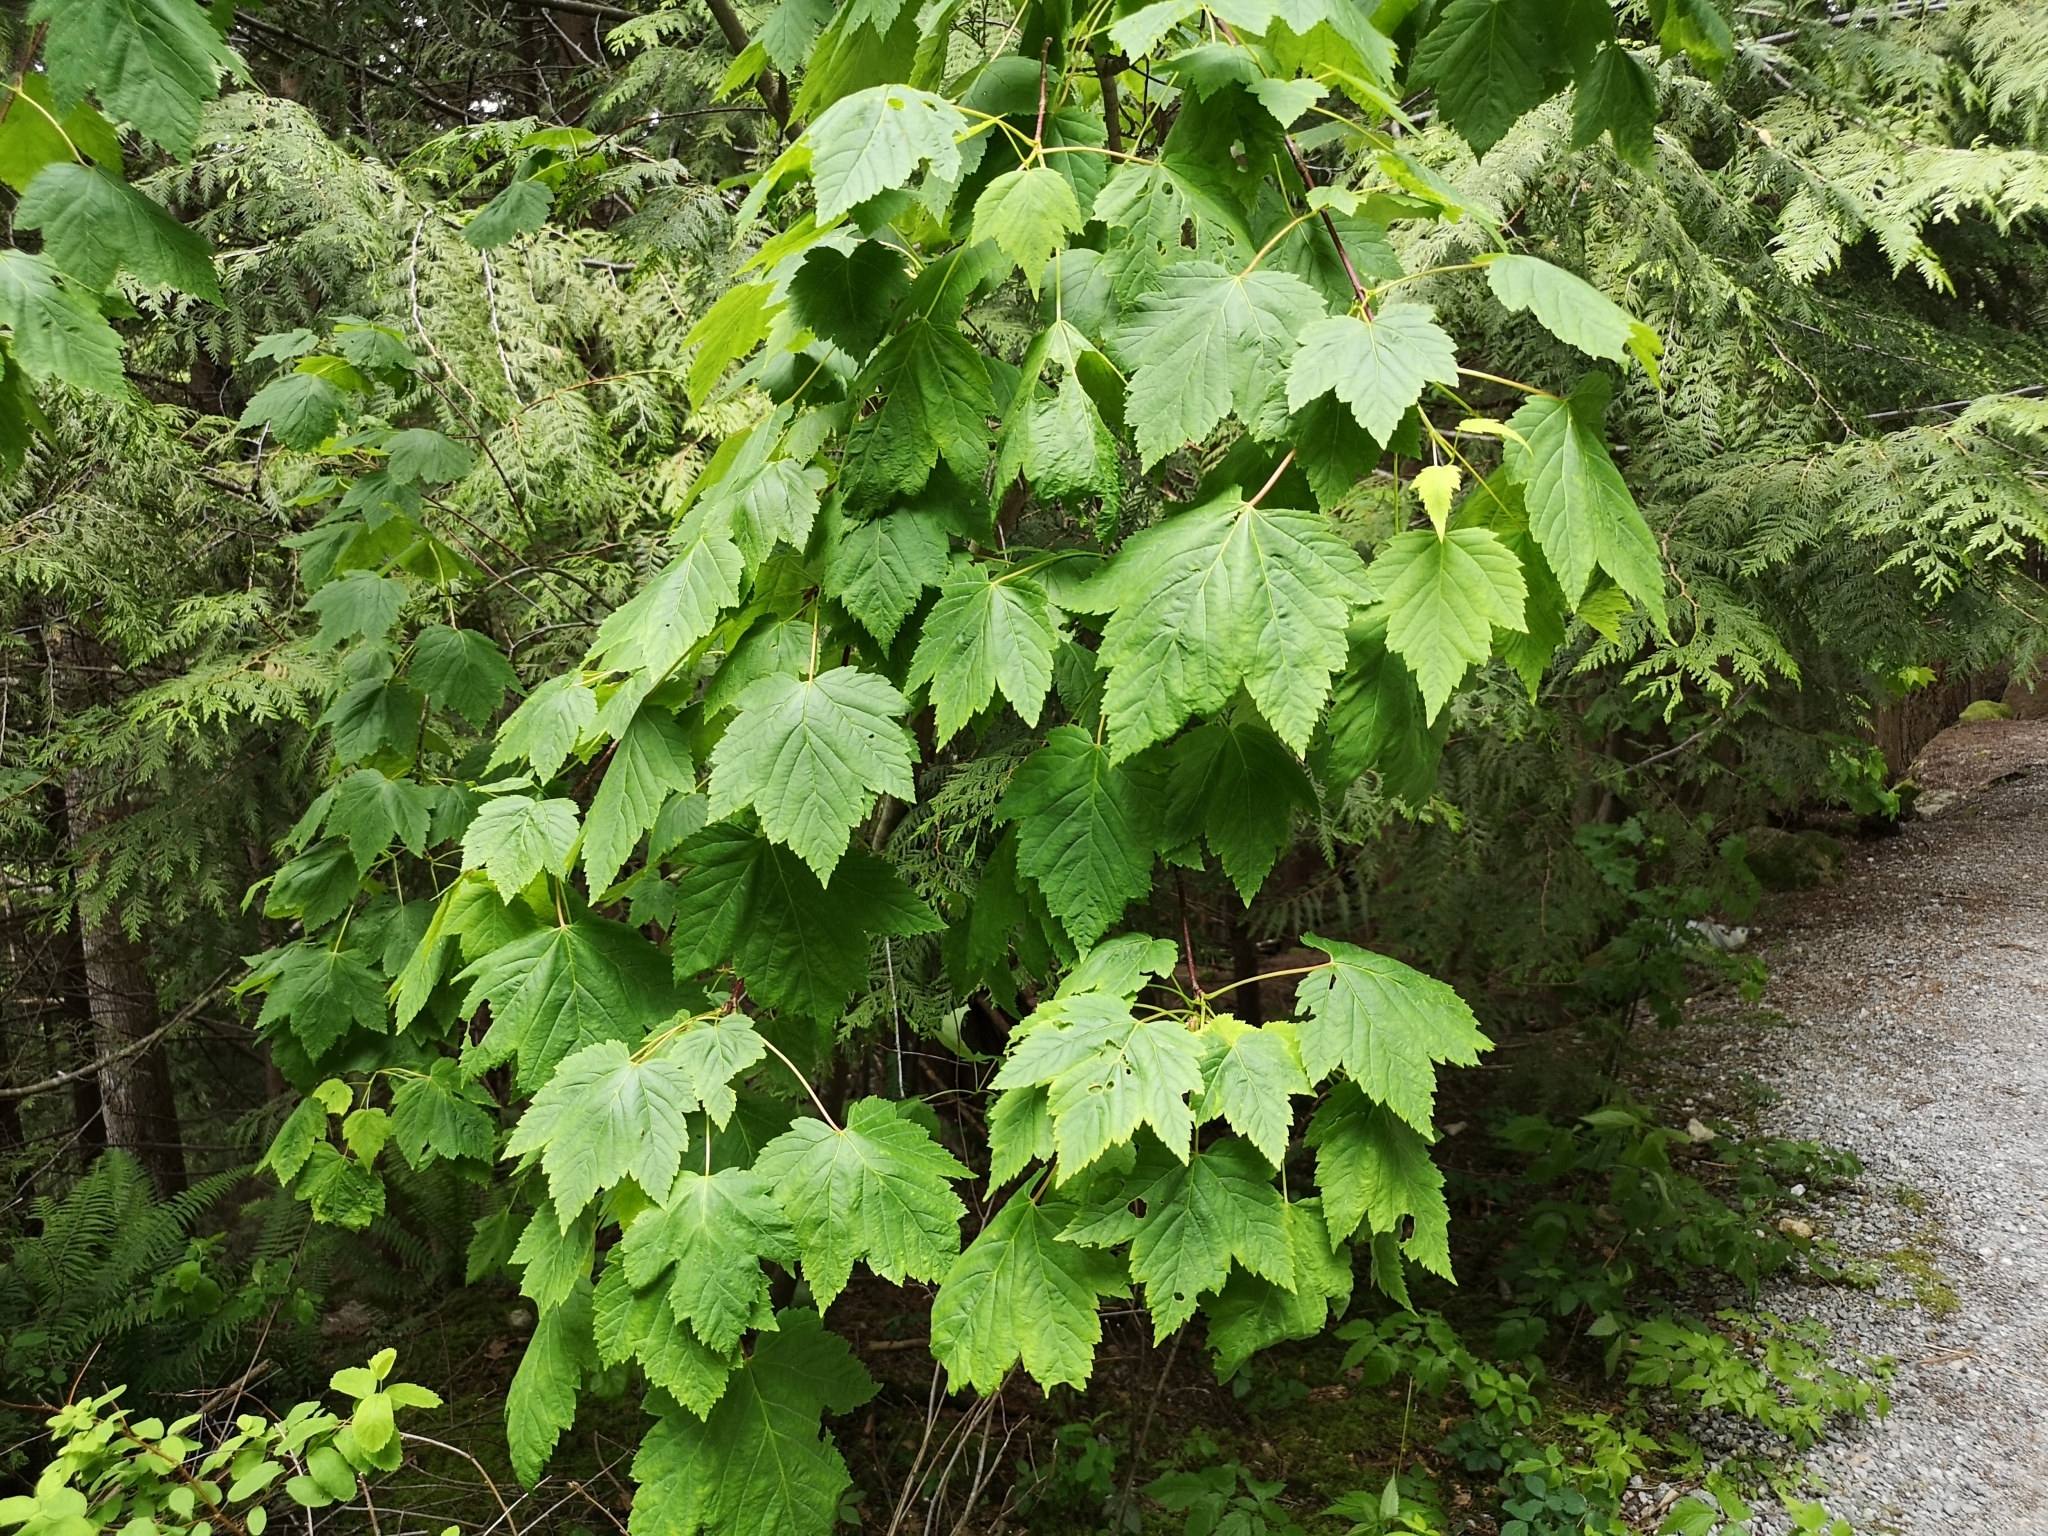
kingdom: Plantae
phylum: Tracheophyta
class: Magnoliopsida
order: Sapindales
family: Sapindaceae
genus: Acer
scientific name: Acer glabrum
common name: Rocky mountain maple
